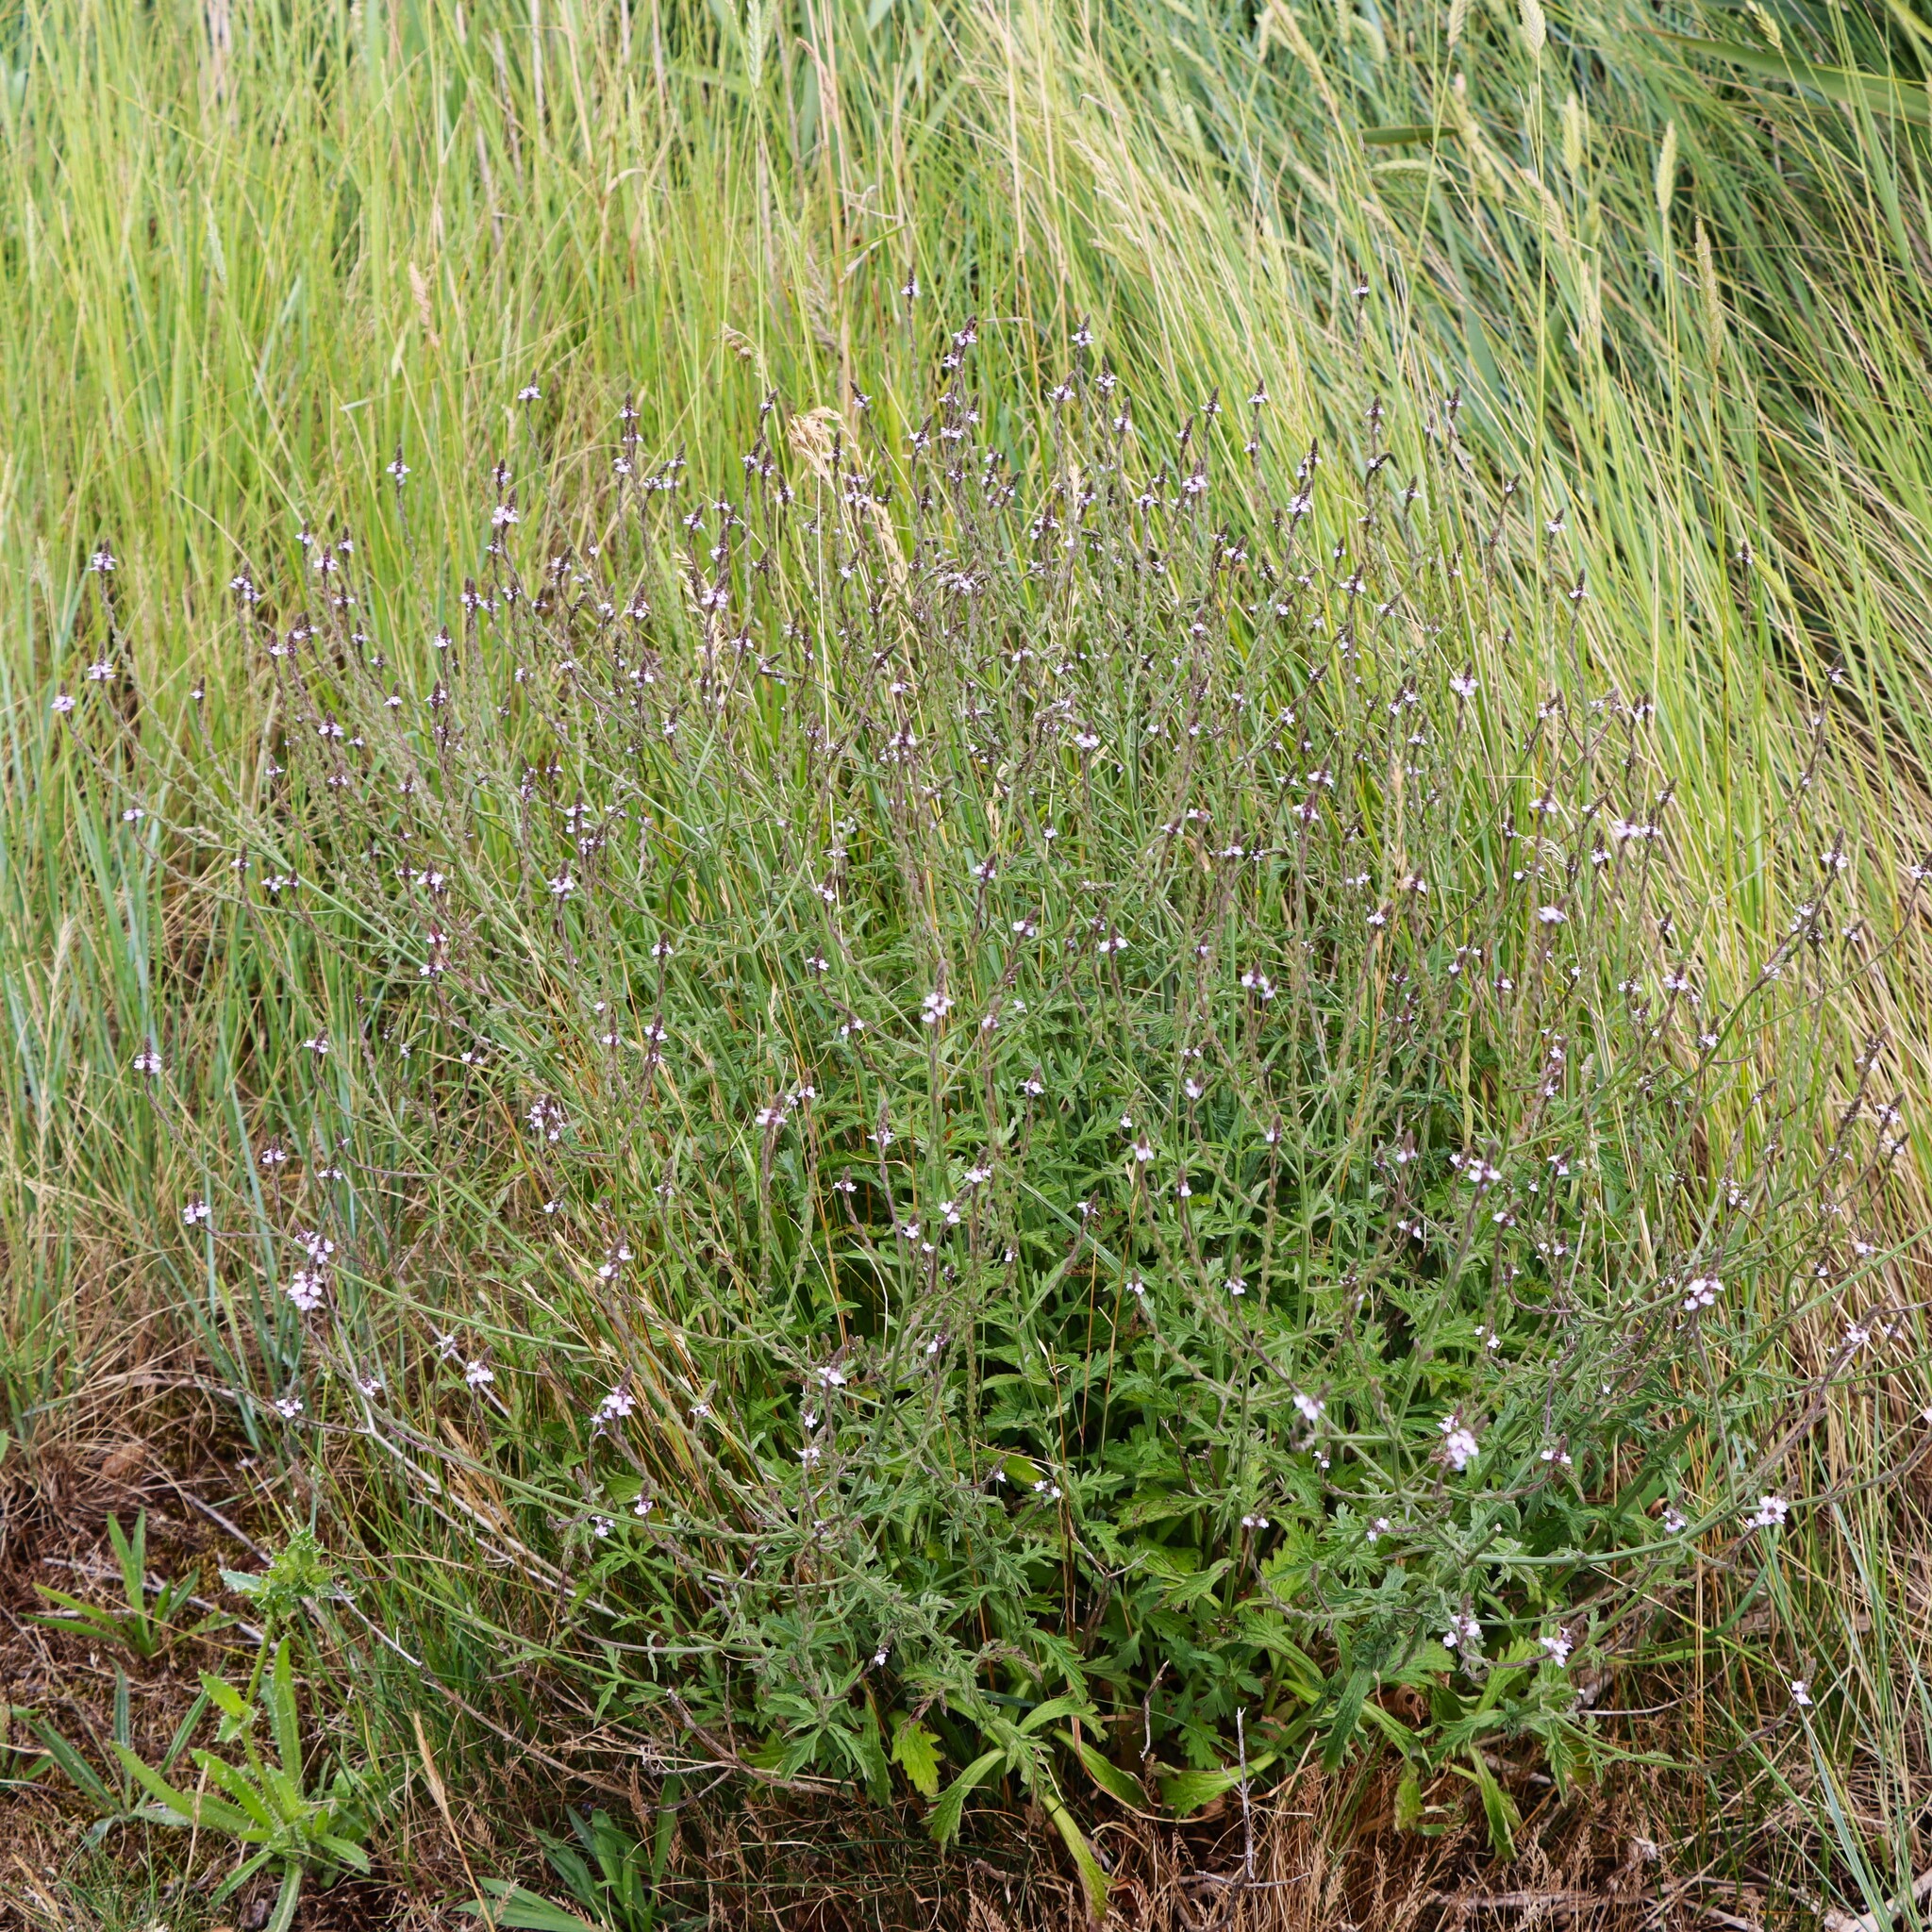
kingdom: Plantae
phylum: Tracheophyta
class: Magnoliopsida
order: Lamiales
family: Verbenaceae
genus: Verbena
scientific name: Verbena officinalis
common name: Vervain
